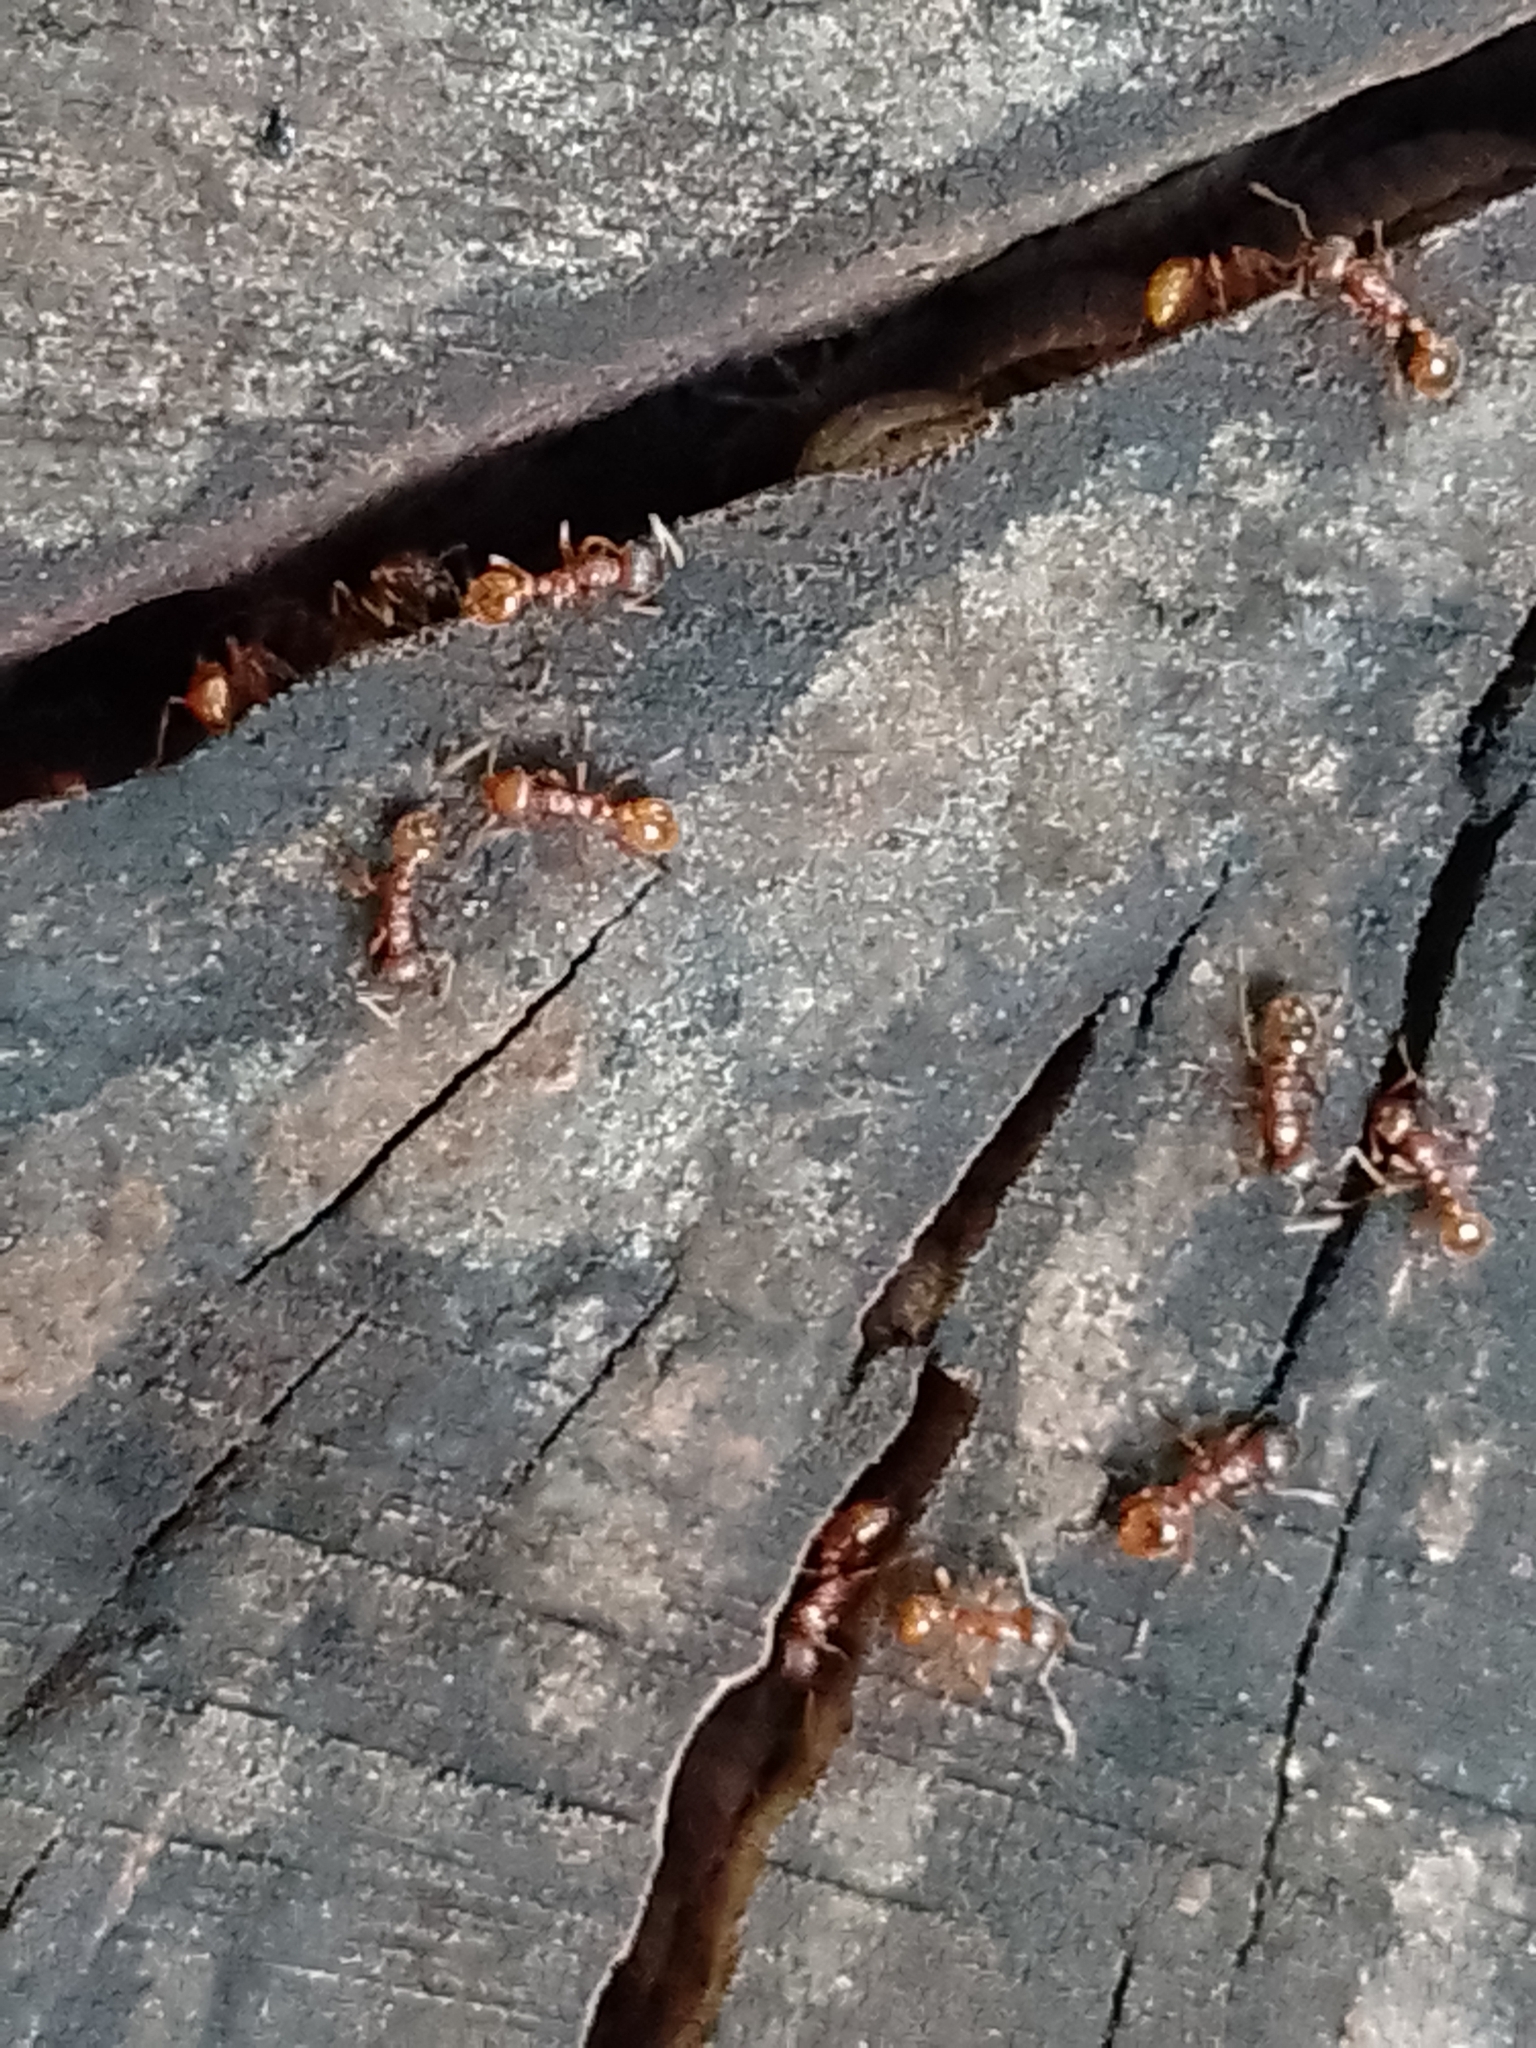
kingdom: Animalia
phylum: Arthropoda
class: Insecta
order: Hymenoptera
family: Formicidae
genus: Myrmica
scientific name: Myrmica rubra
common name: European fire ant
